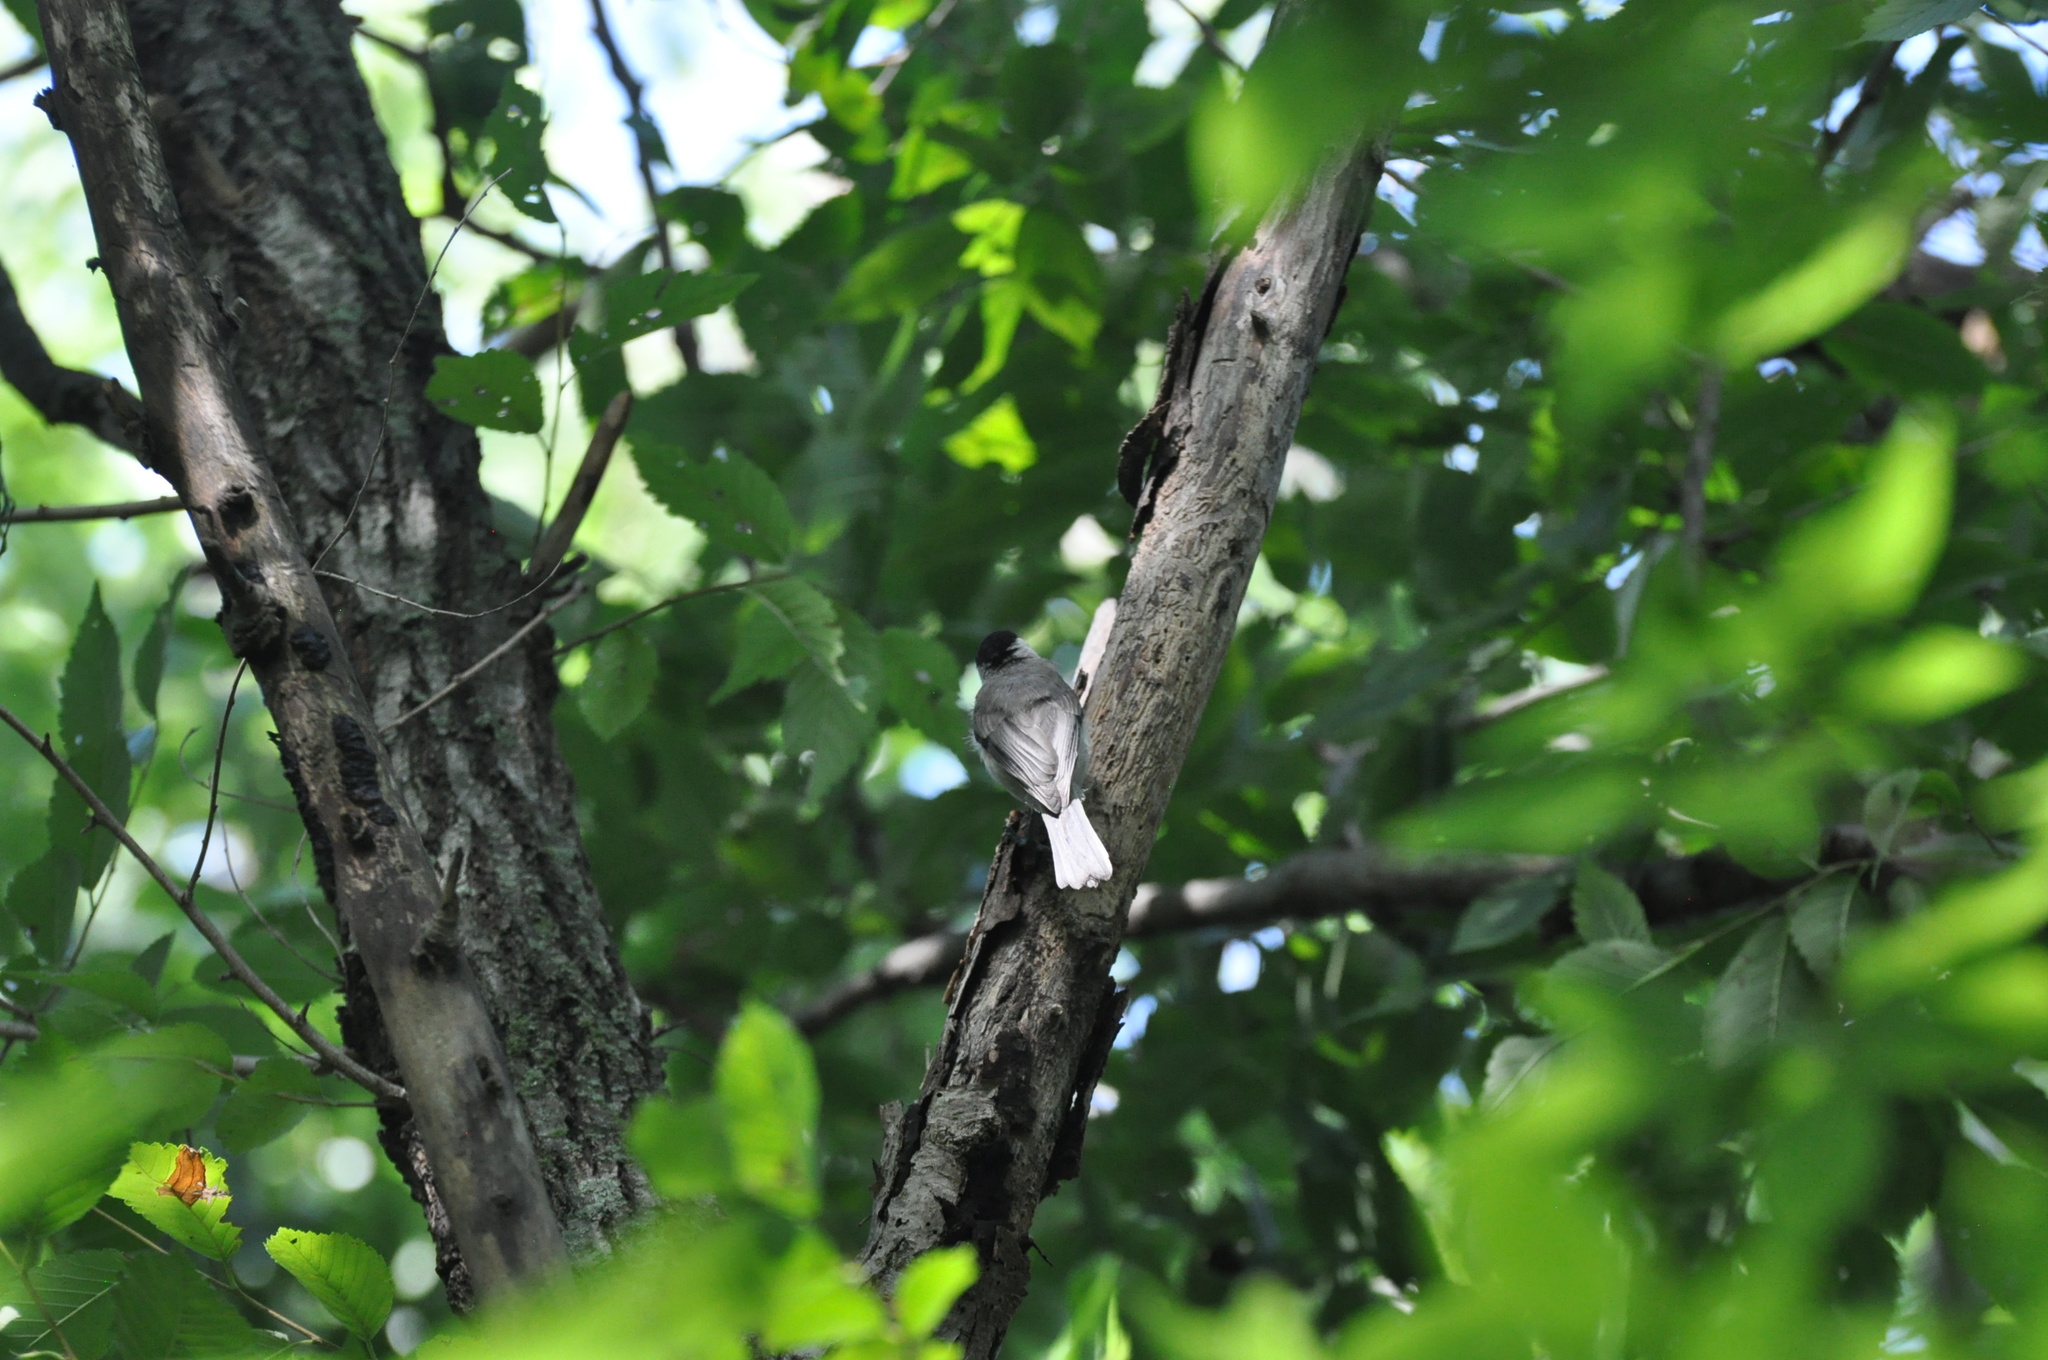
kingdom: Animalia
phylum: Chordata
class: Aves
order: Passeriformes
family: Paridae
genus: Poecile
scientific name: Poecile carolinensis
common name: Carolina chickadee
